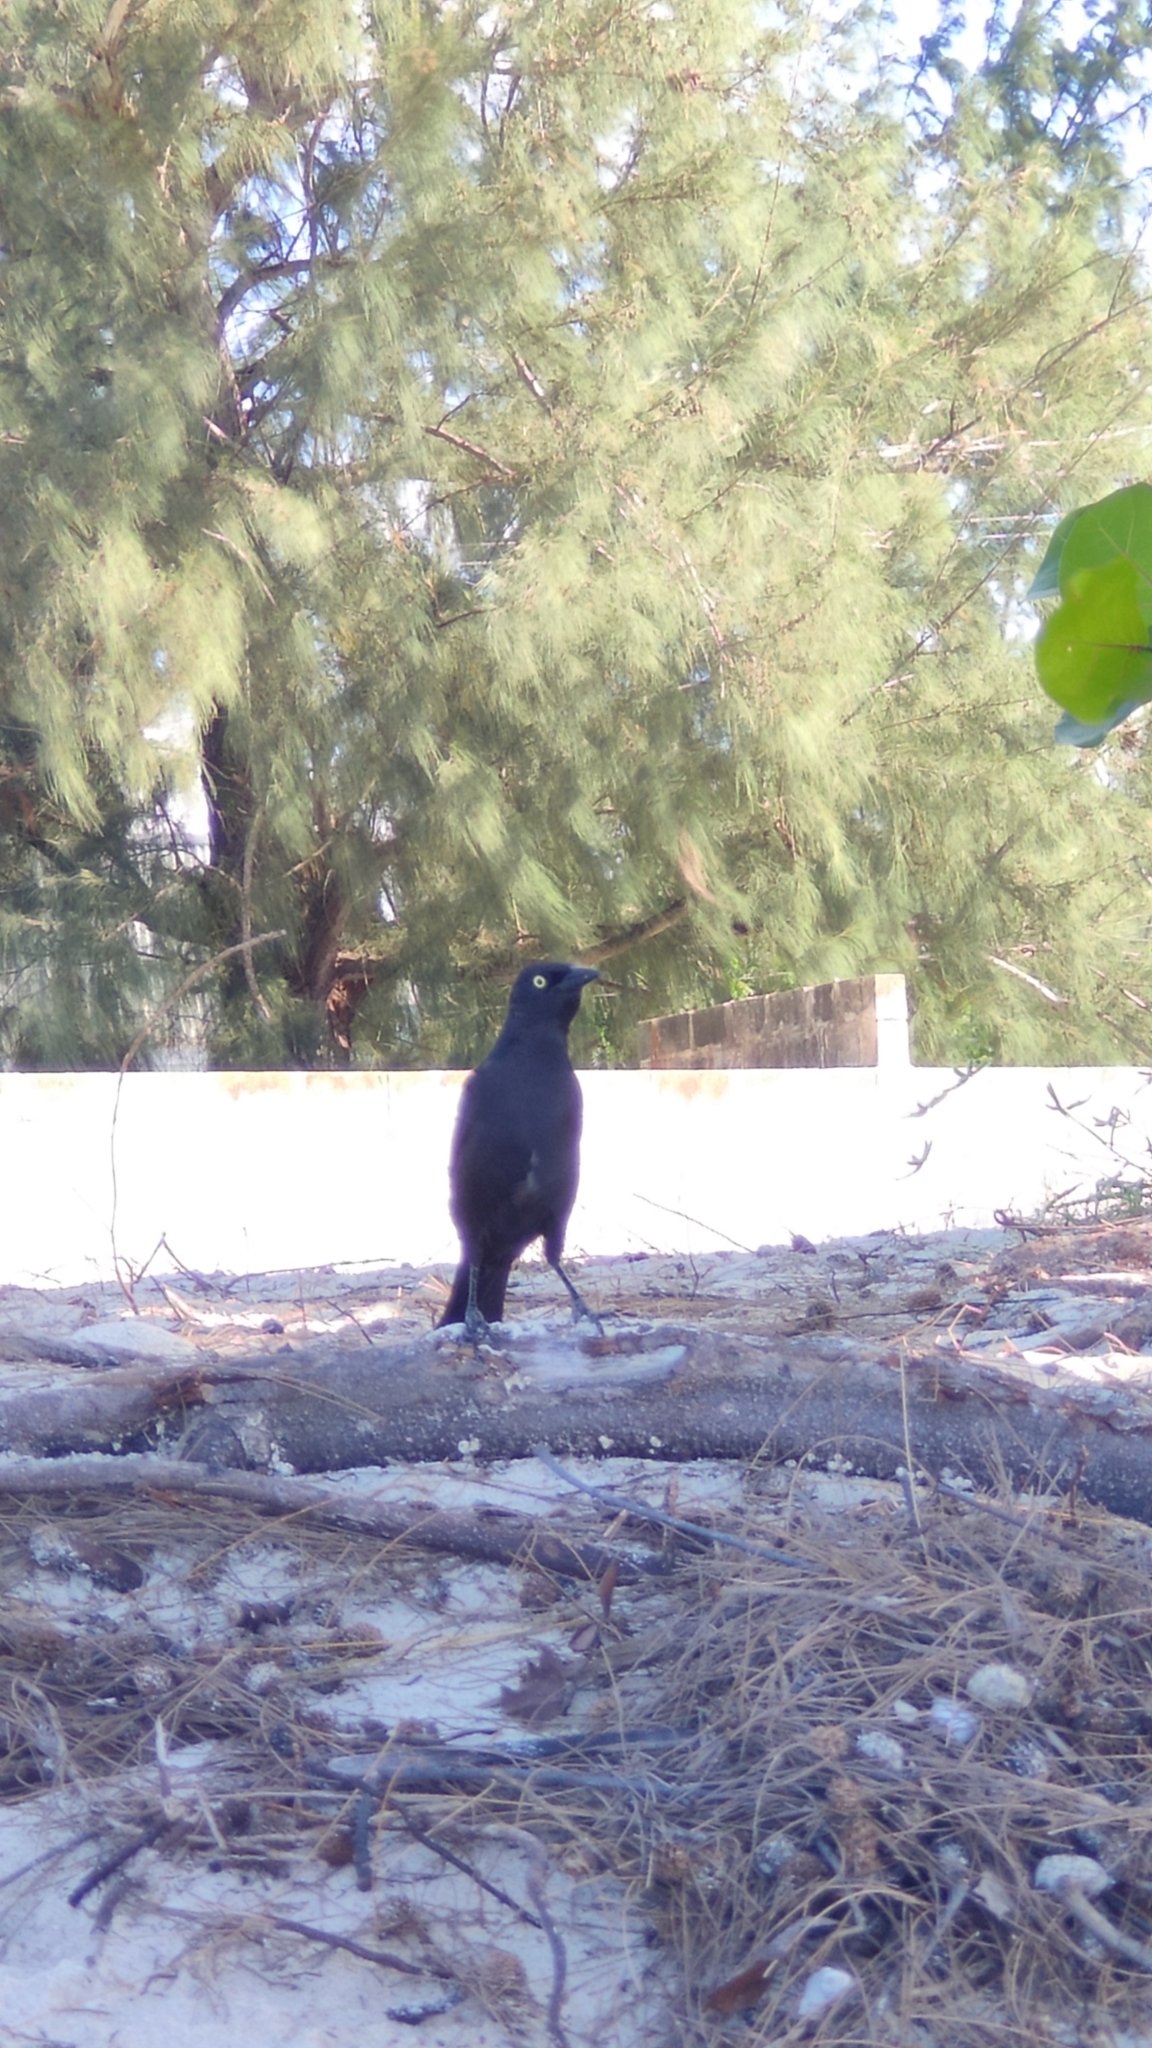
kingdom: Animalia
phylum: Chordata
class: Aves
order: Passeriformes
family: Icteridae
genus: Quiscalus
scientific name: Quiscalus lugubris
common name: Carib grackle
